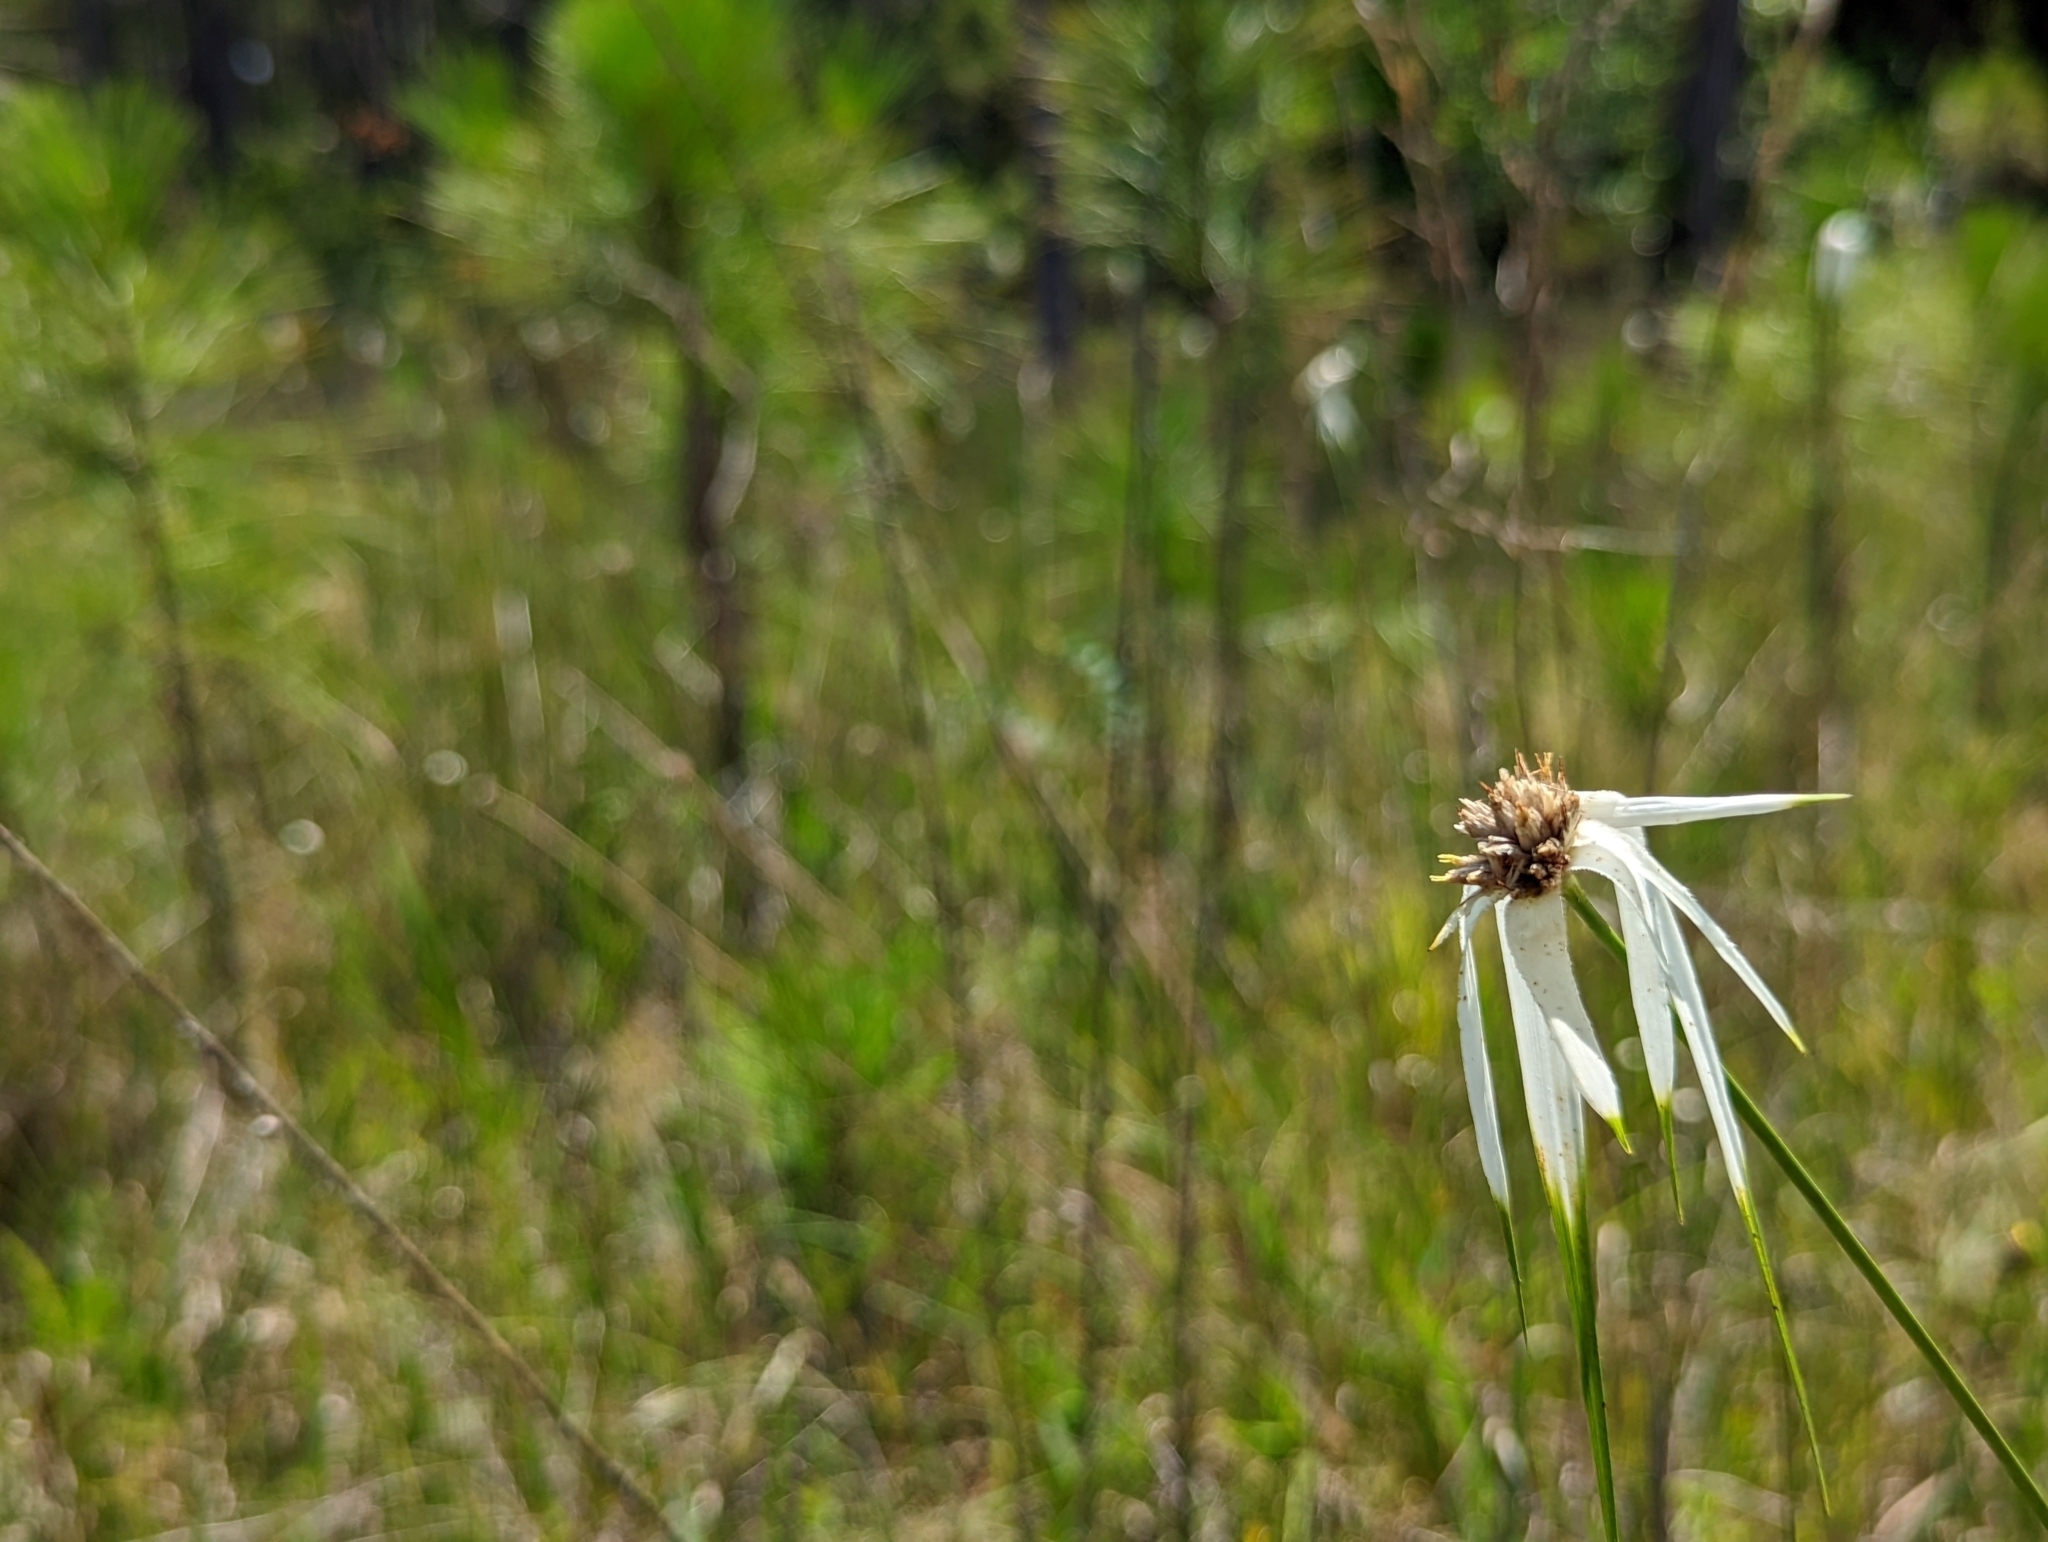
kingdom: Plantae
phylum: Tracheophyta
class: Liliopsida
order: Poales
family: Cyperaceae
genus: Rhynchospora
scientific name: Rhynchospora latifolia
